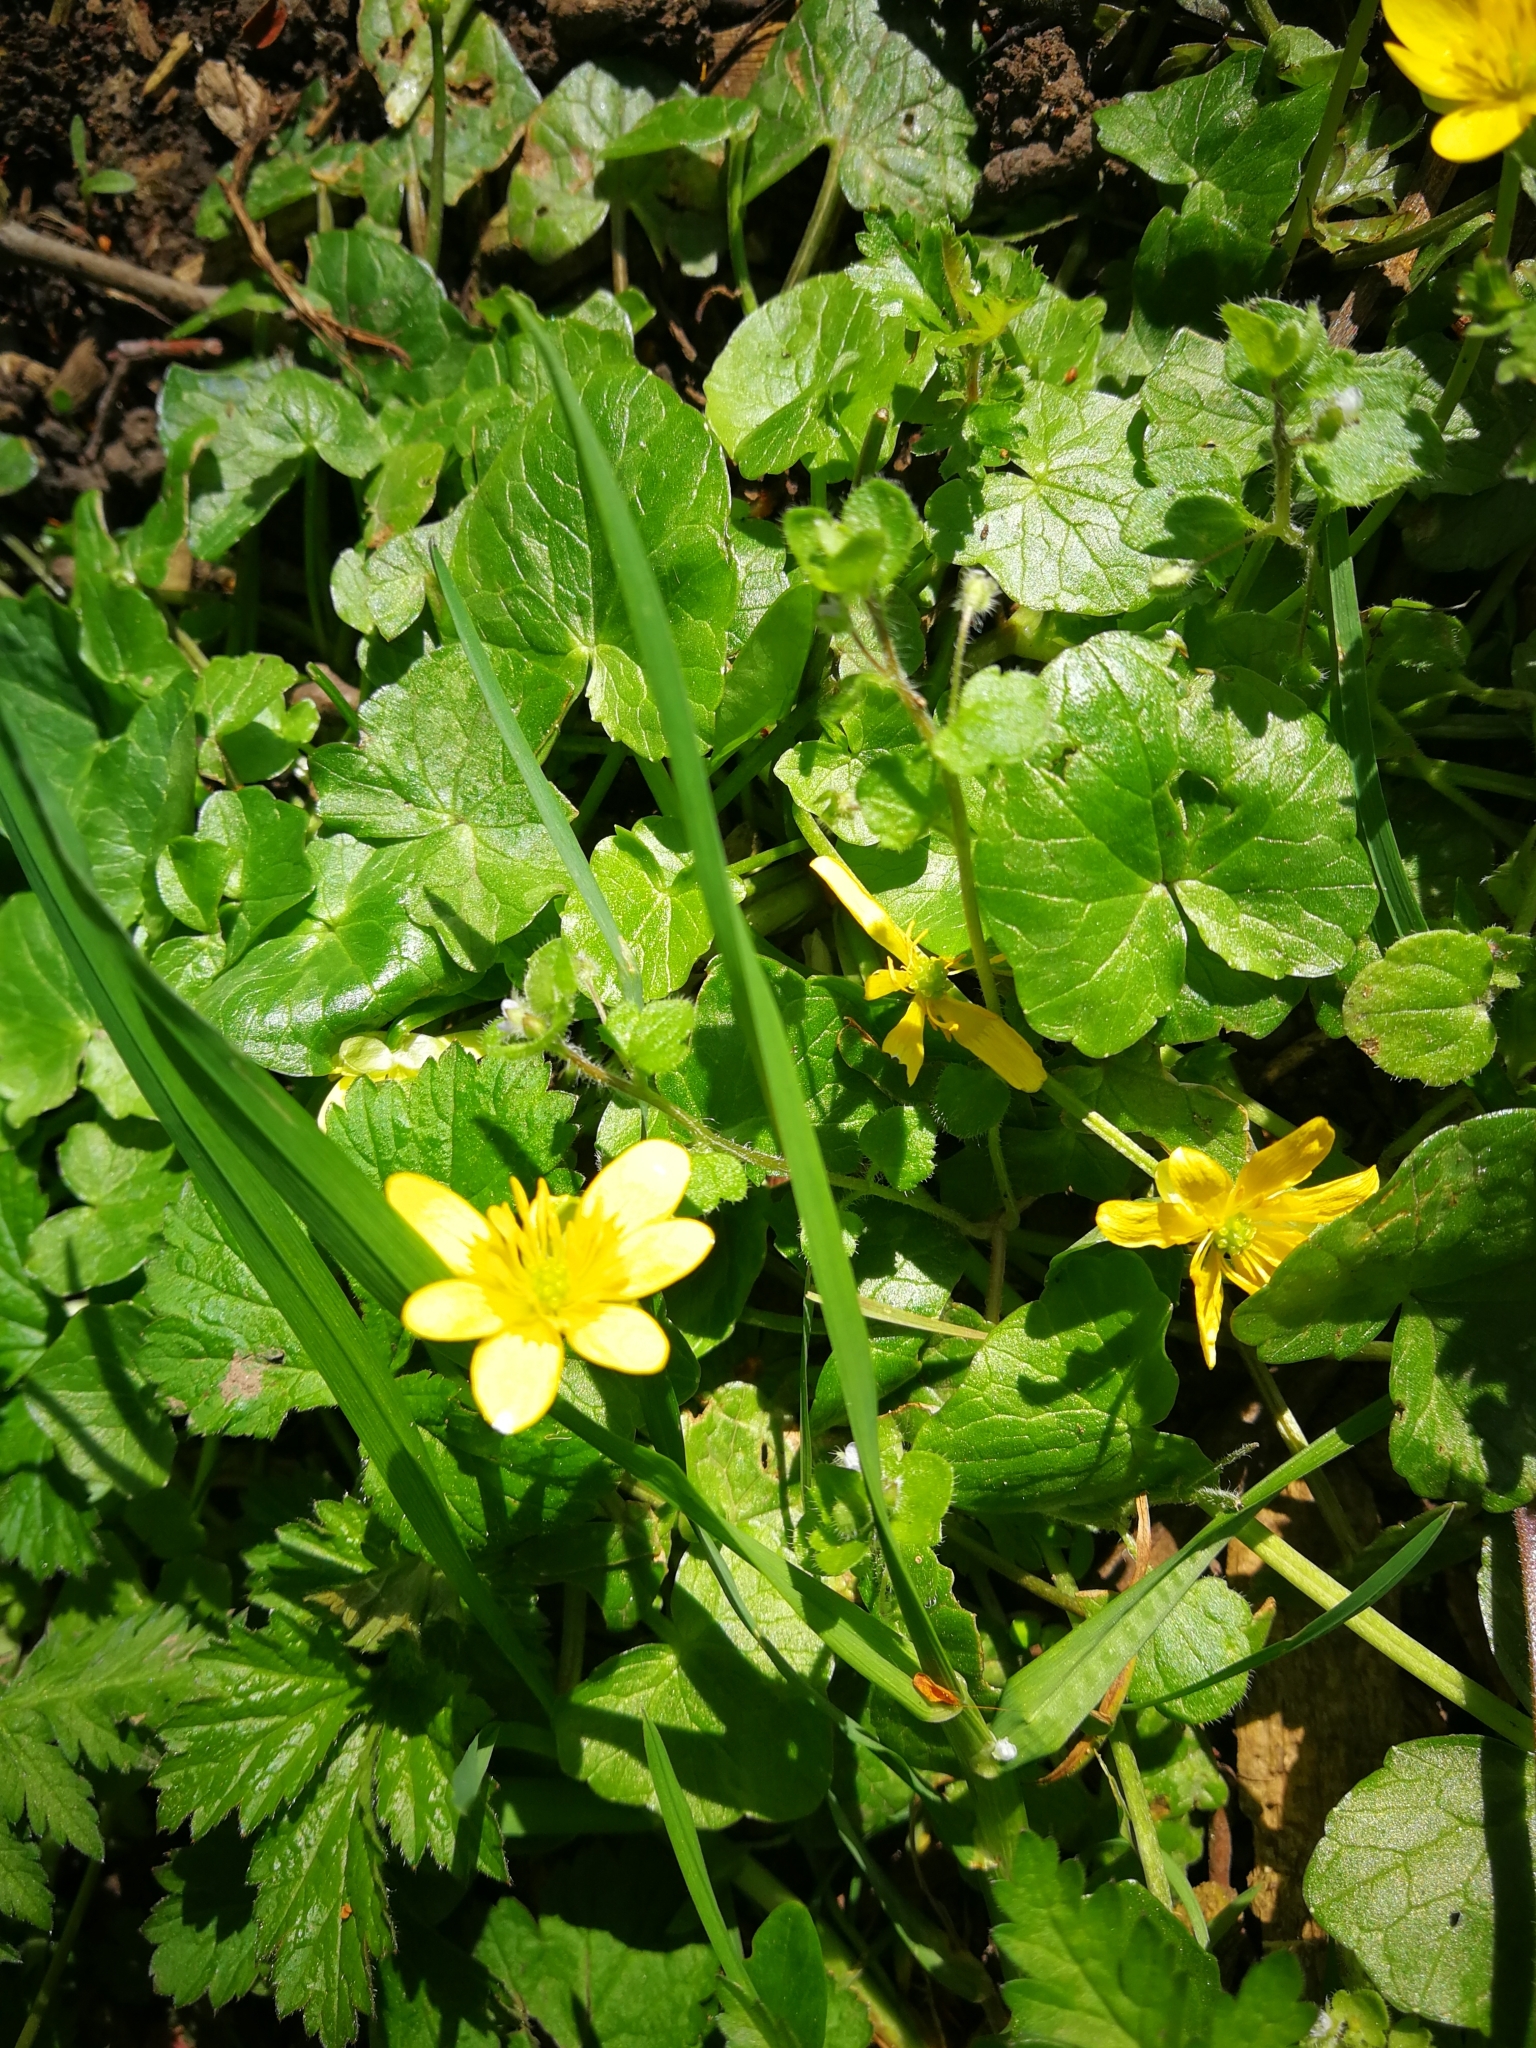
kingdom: Plantae
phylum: Tracheophyta
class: Magnoliopsida
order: Ranunculales
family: Ranunculaceae
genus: Ficaria
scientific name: Ficaria verna
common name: Lesser celandine
